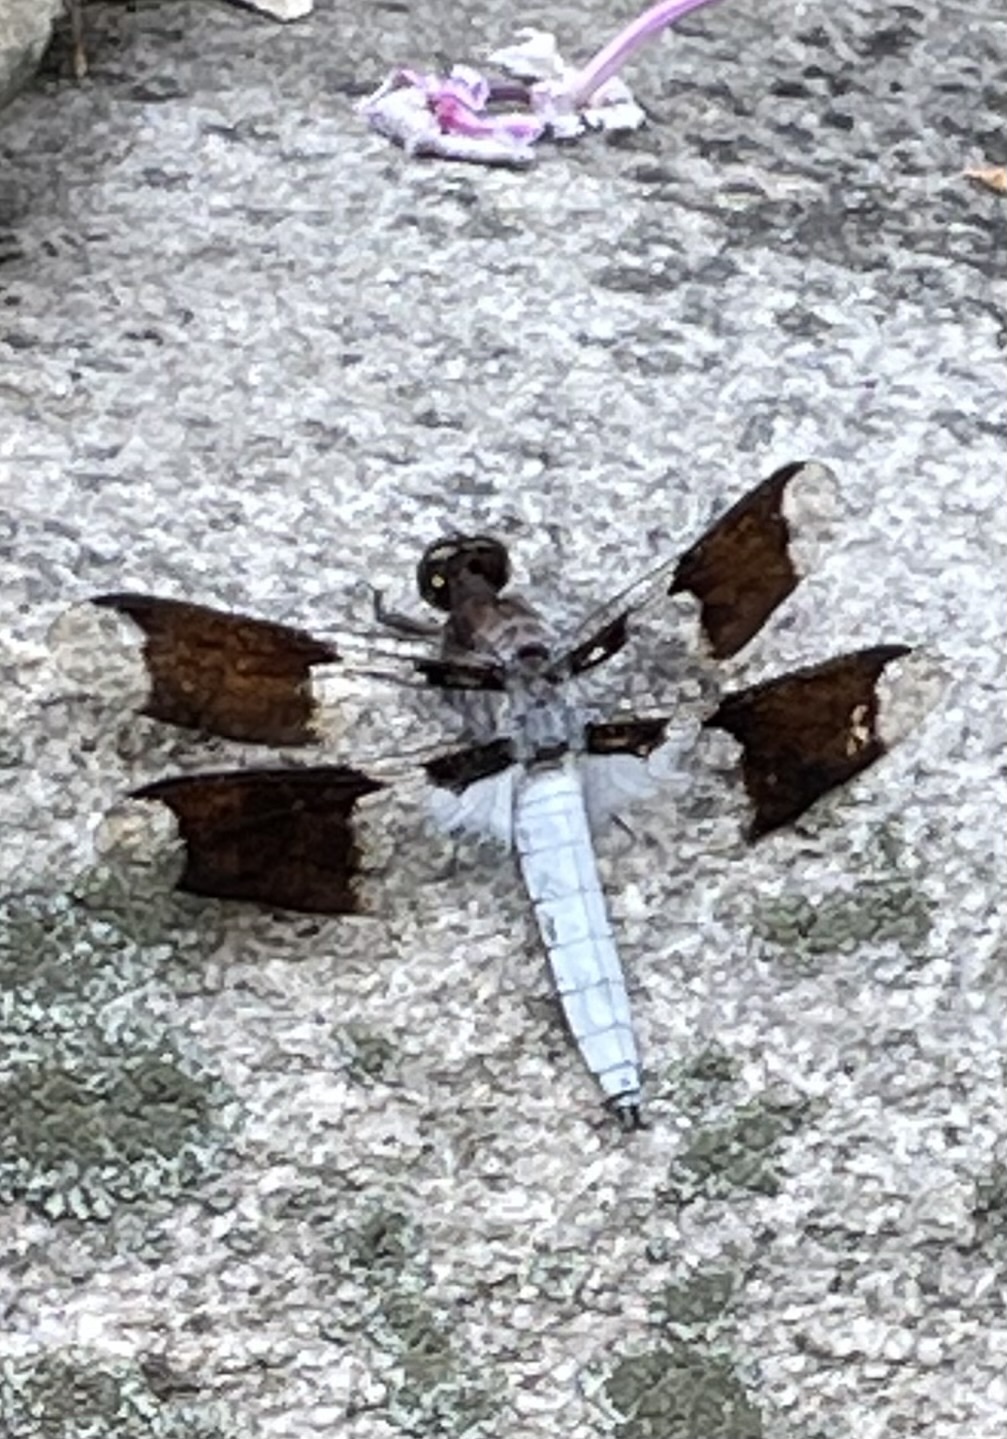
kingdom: Animalia
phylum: Arthropoda
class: Insecta
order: Odonata
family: Libellulidae
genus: Plathemis
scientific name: Plathemis lydia
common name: Common whitetail
